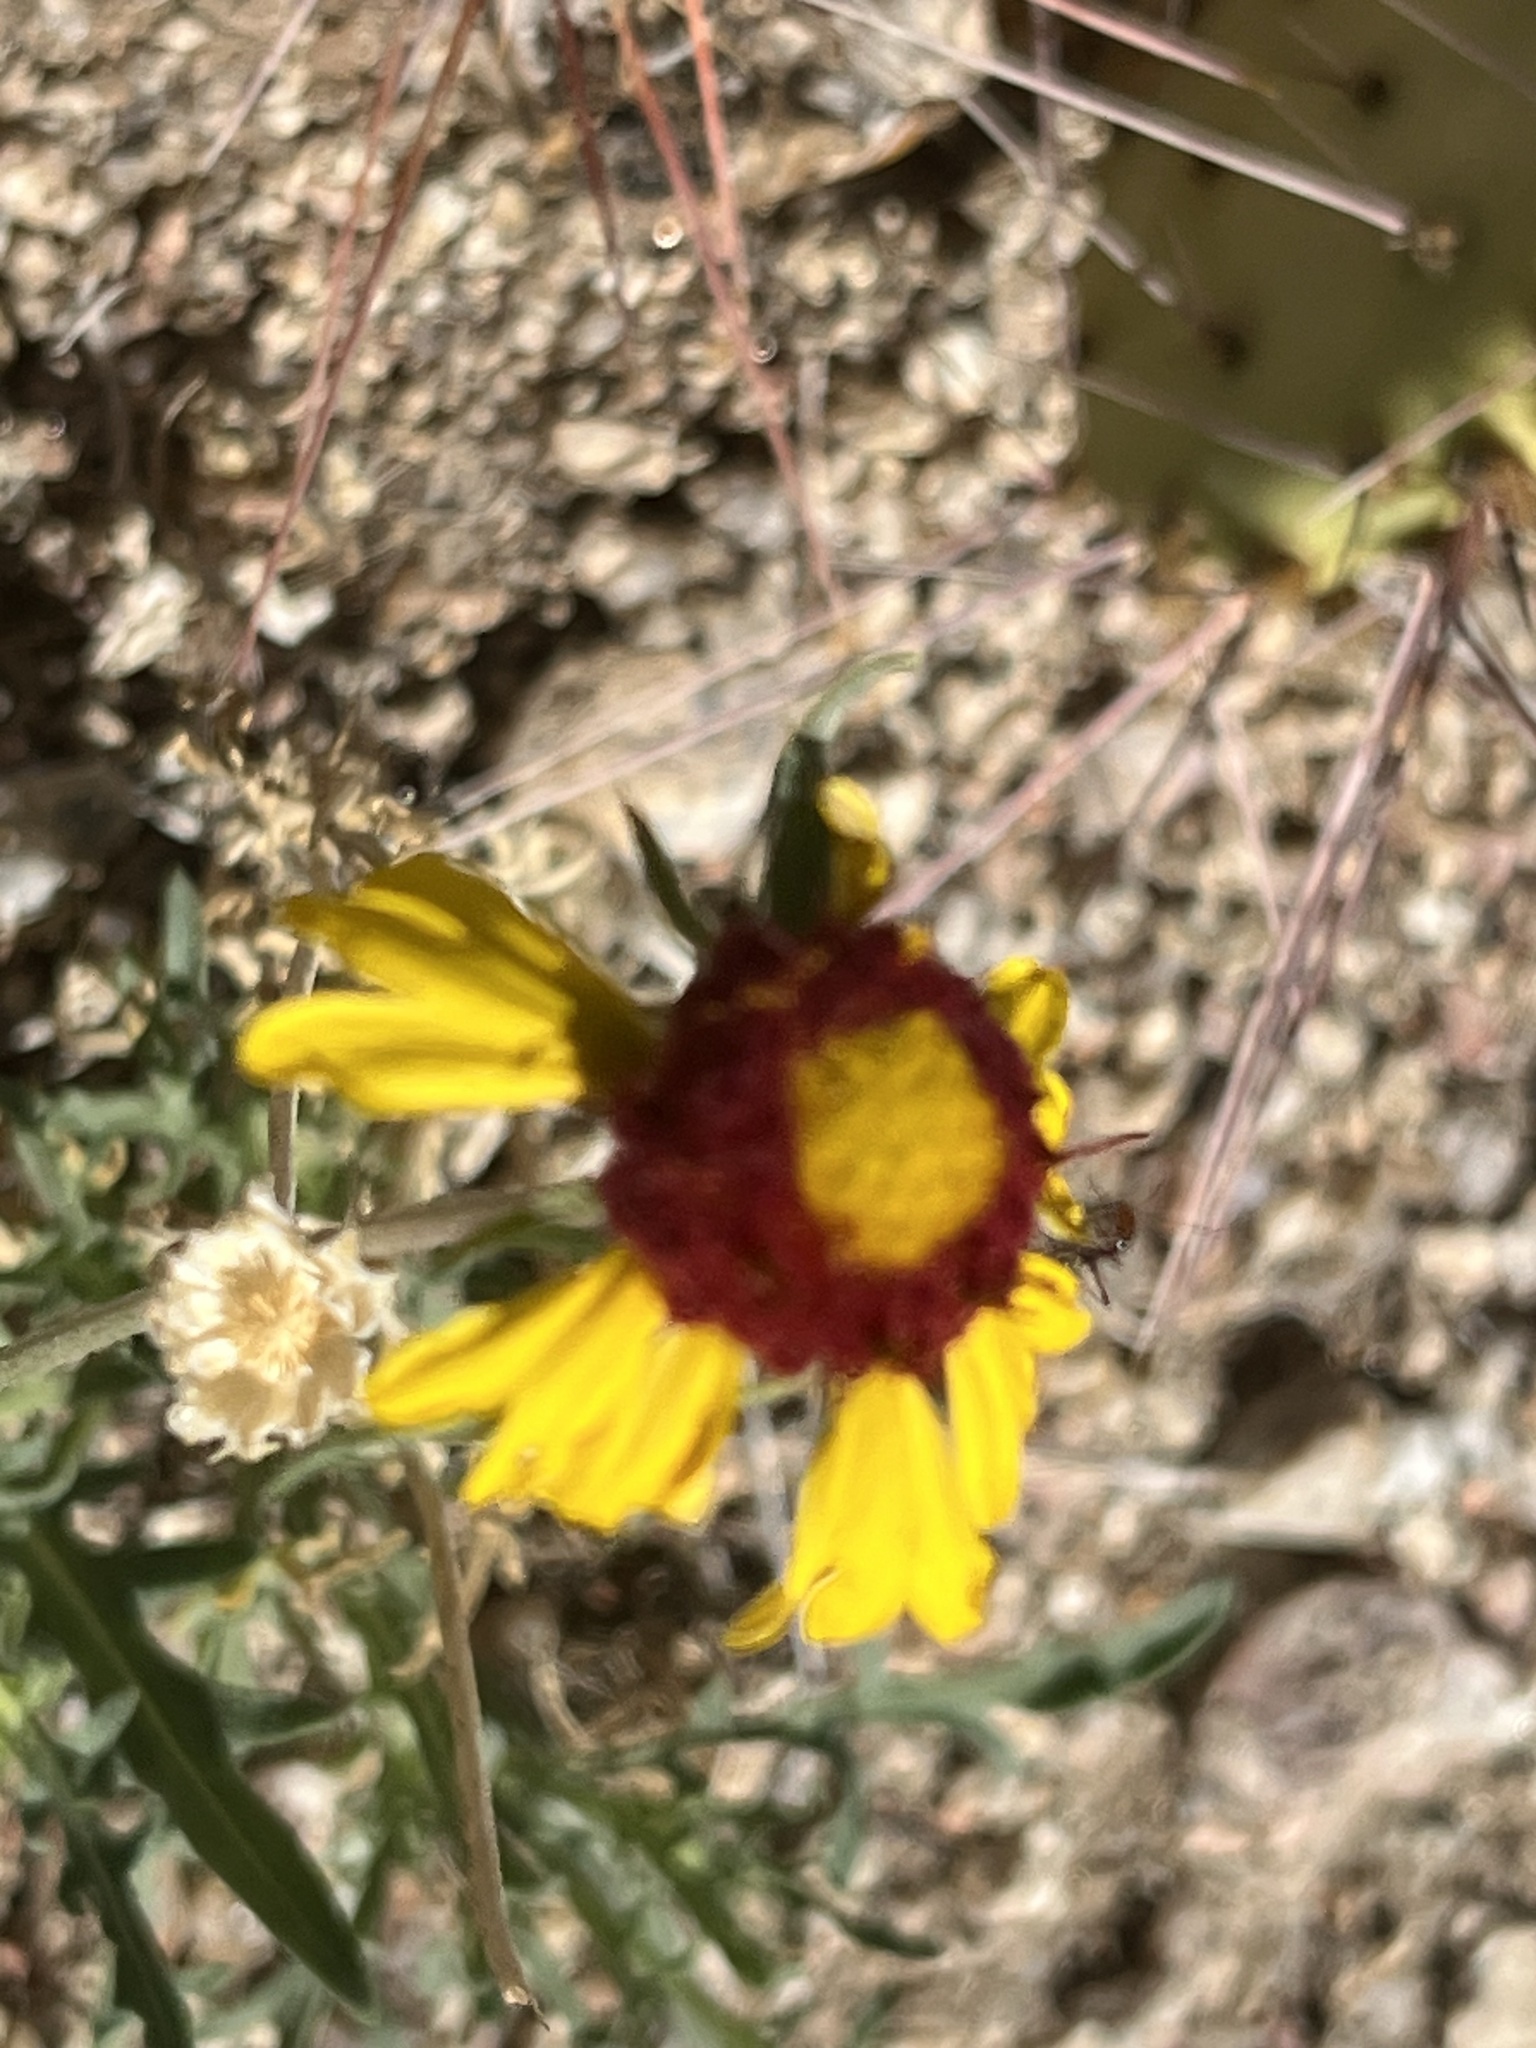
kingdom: Plantae
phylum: Tracheophyta
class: Magnoliopsida
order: Asterales
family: Asteraceae
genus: Gaillardia
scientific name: Gaillardia pinnatifida
